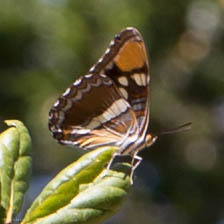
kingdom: Animalia
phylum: Arthropoda
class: Insecta
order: Lepidoptera
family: Nymphalidae
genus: Limenitis
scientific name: Limenitis bredowii
